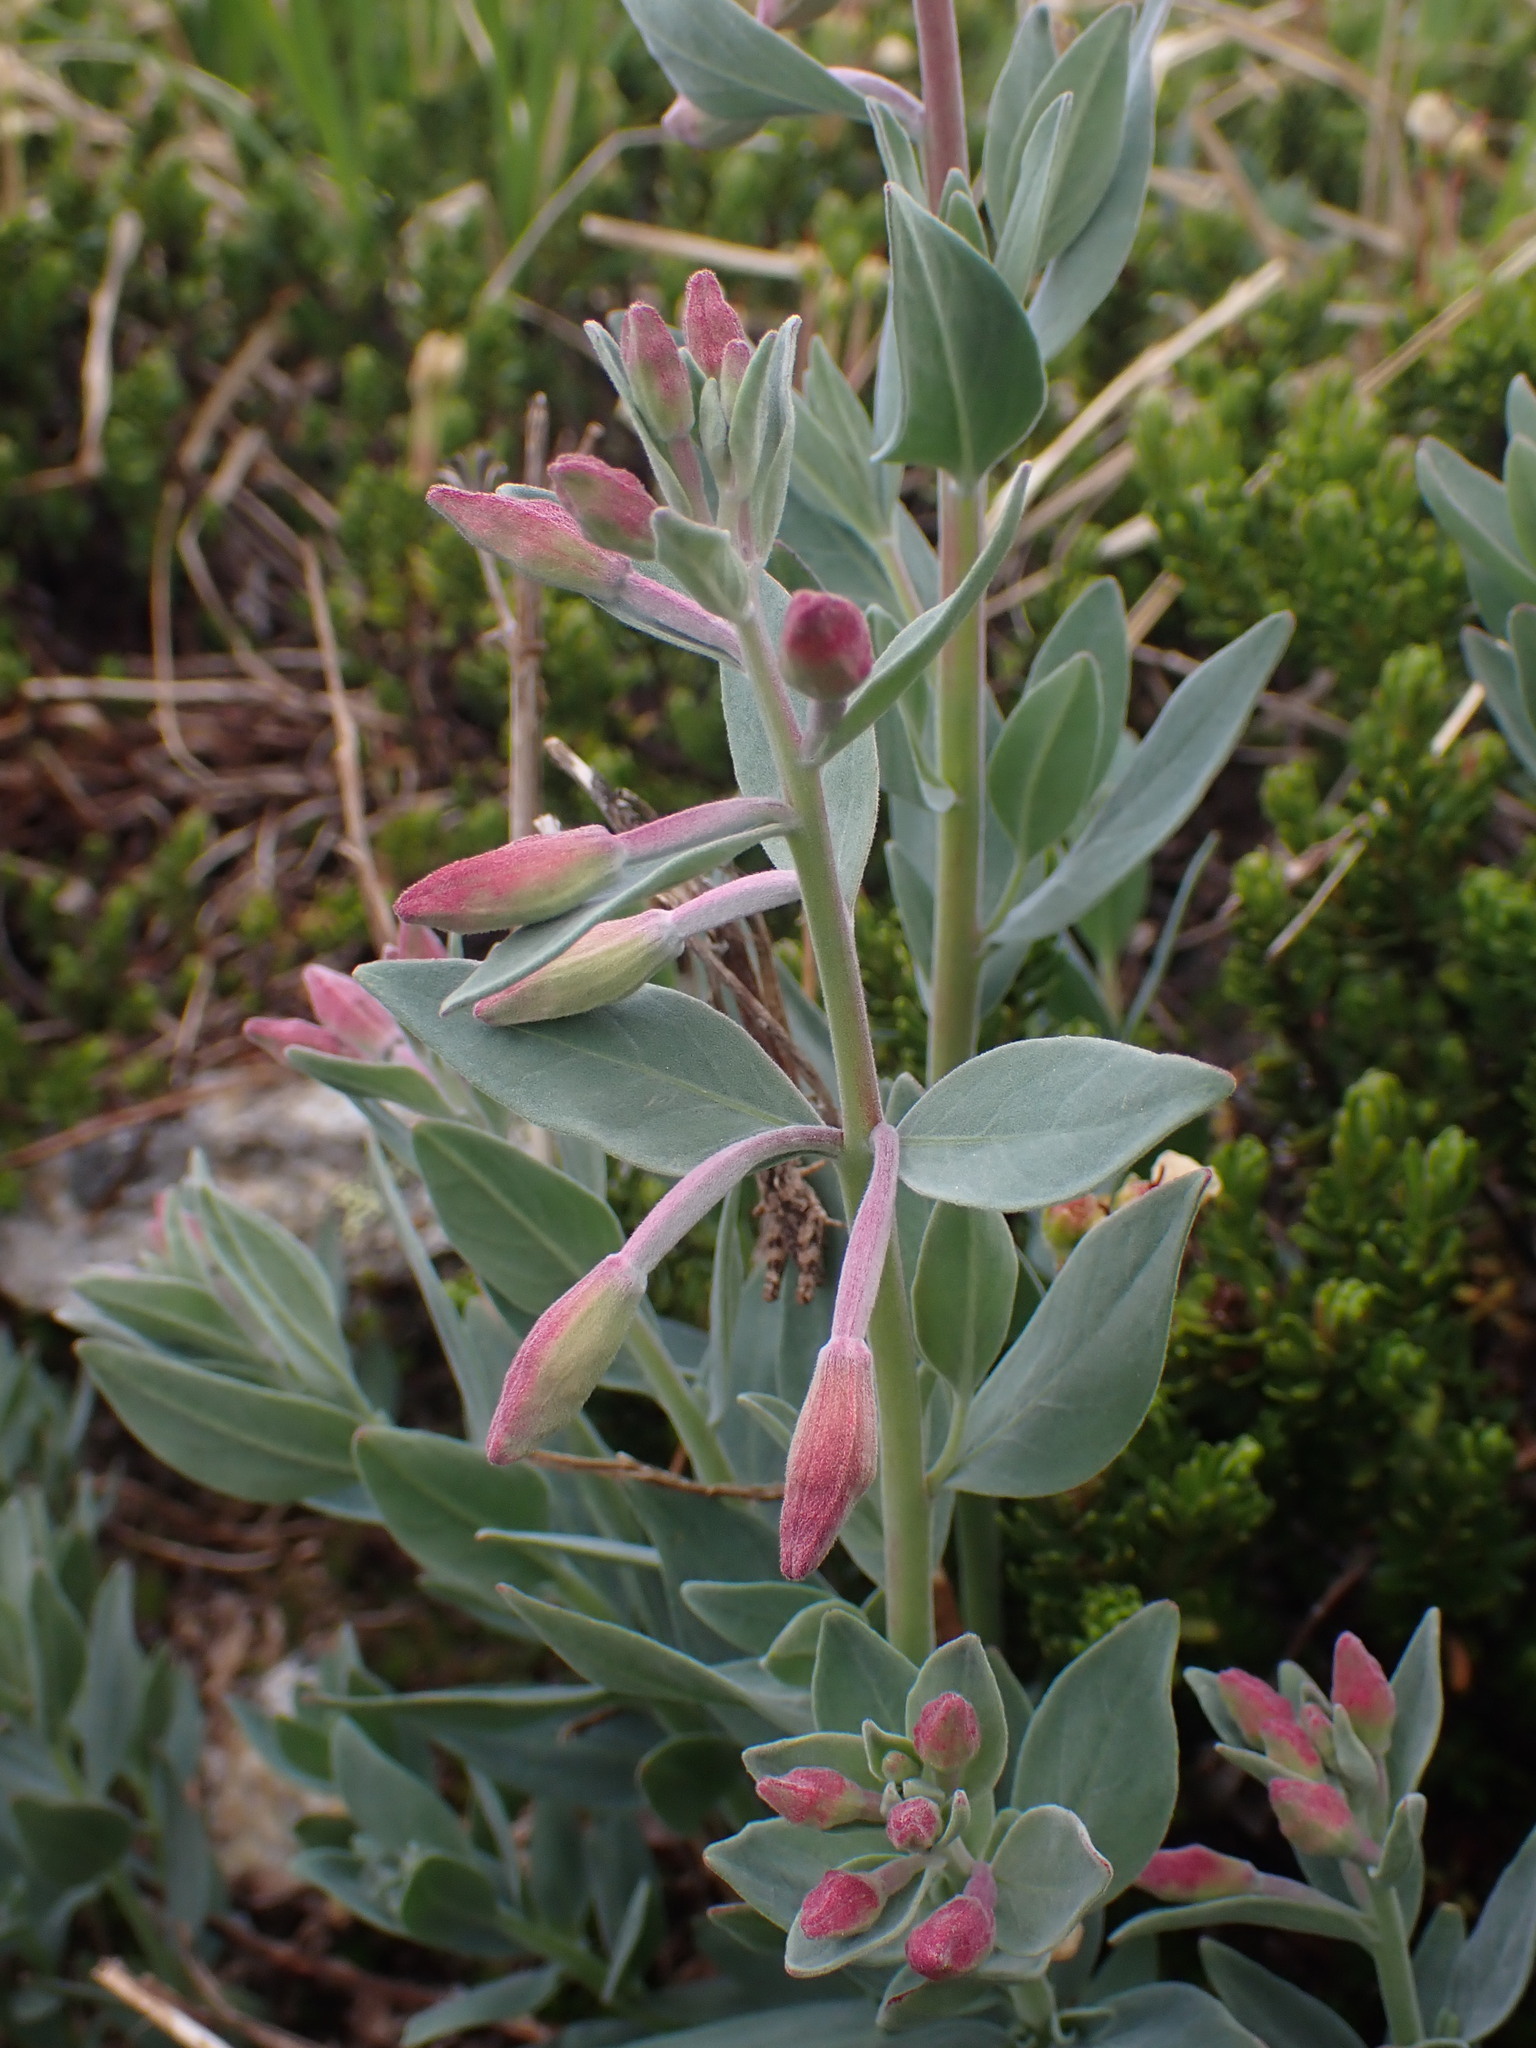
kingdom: Plantae
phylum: Tracheophyta
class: Magnoliopsida
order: Myrtales
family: Onagraceae
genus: Chamaenerion
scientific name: Chamaenerion latifolium
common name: Dwarf fireweed
